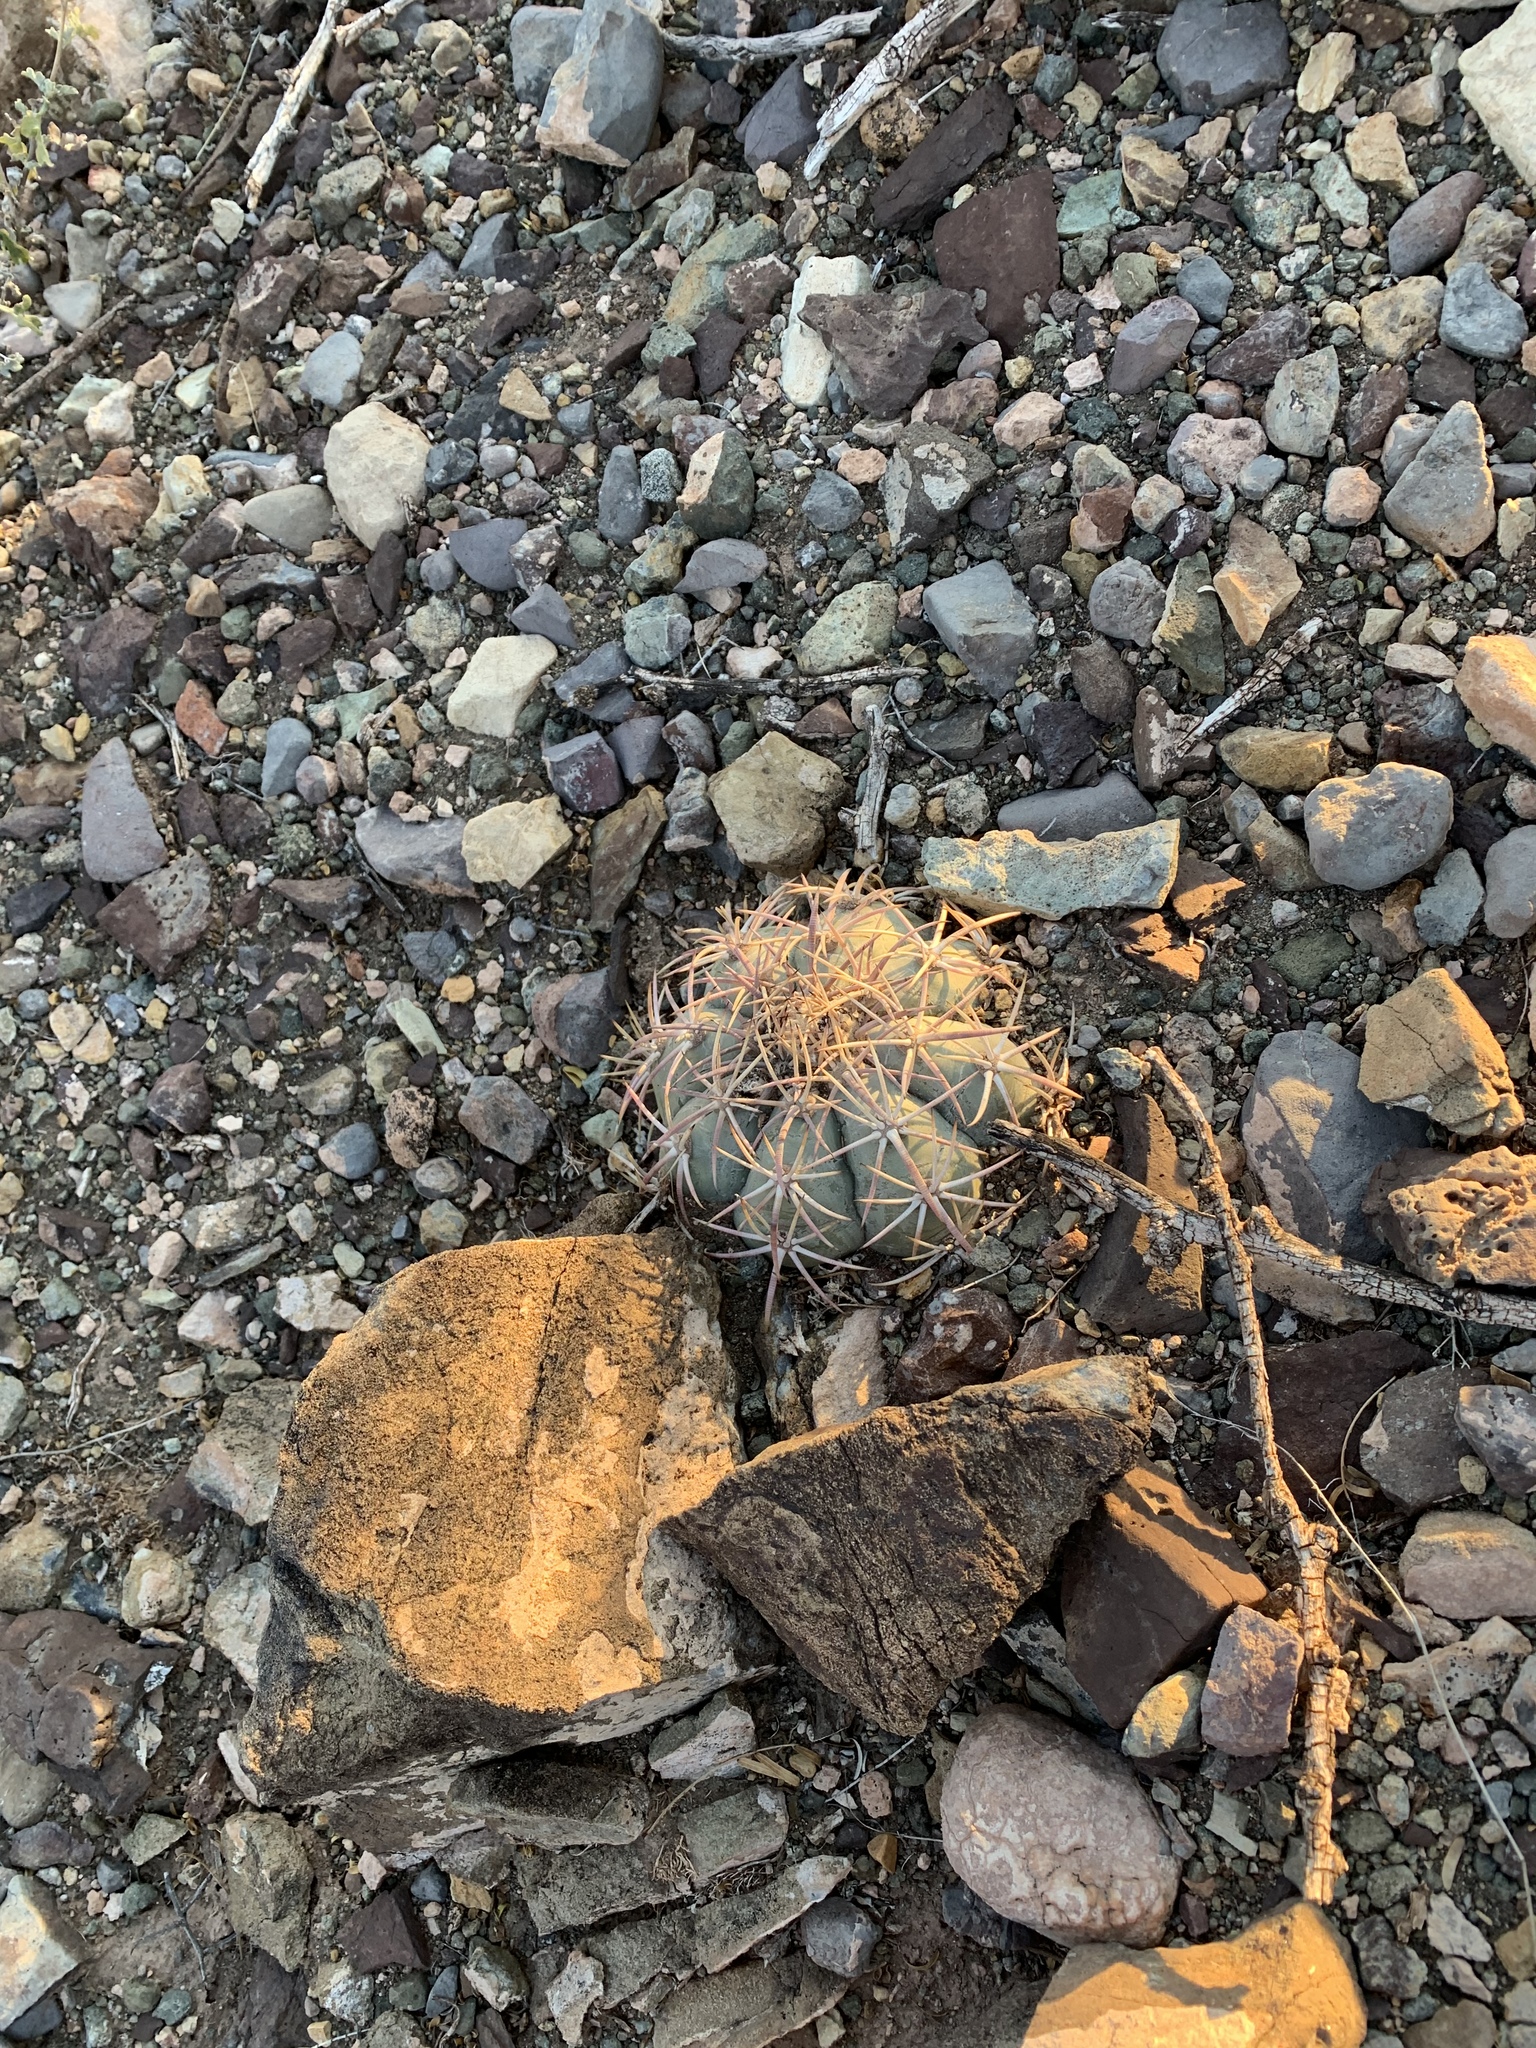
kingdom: Plantae
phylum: Tracheophyta
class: Magnoliopsida
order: Caryophyllales
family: Cactaceae
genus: Echinocactus
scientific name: Echinocactus horizonthalonius
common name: Devilshead
